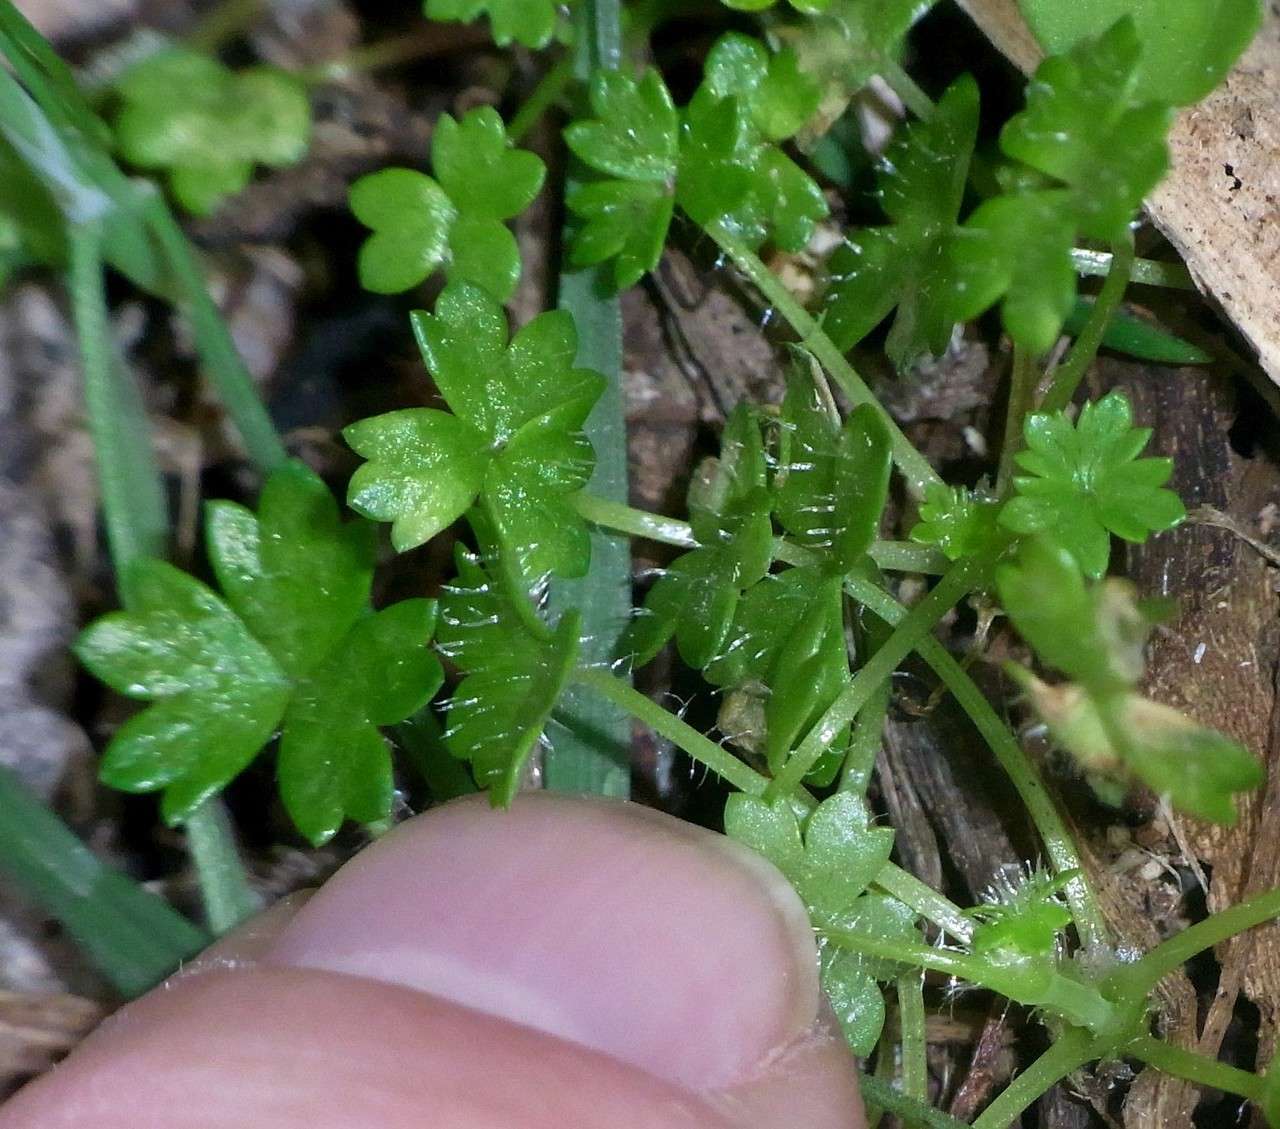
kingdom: Plantae
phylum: Tracheophyta
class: Magnoliopsida
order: Apiales
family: Araliaceae
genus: Hydrocotyle
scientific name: Hydrocotyle foveolata
